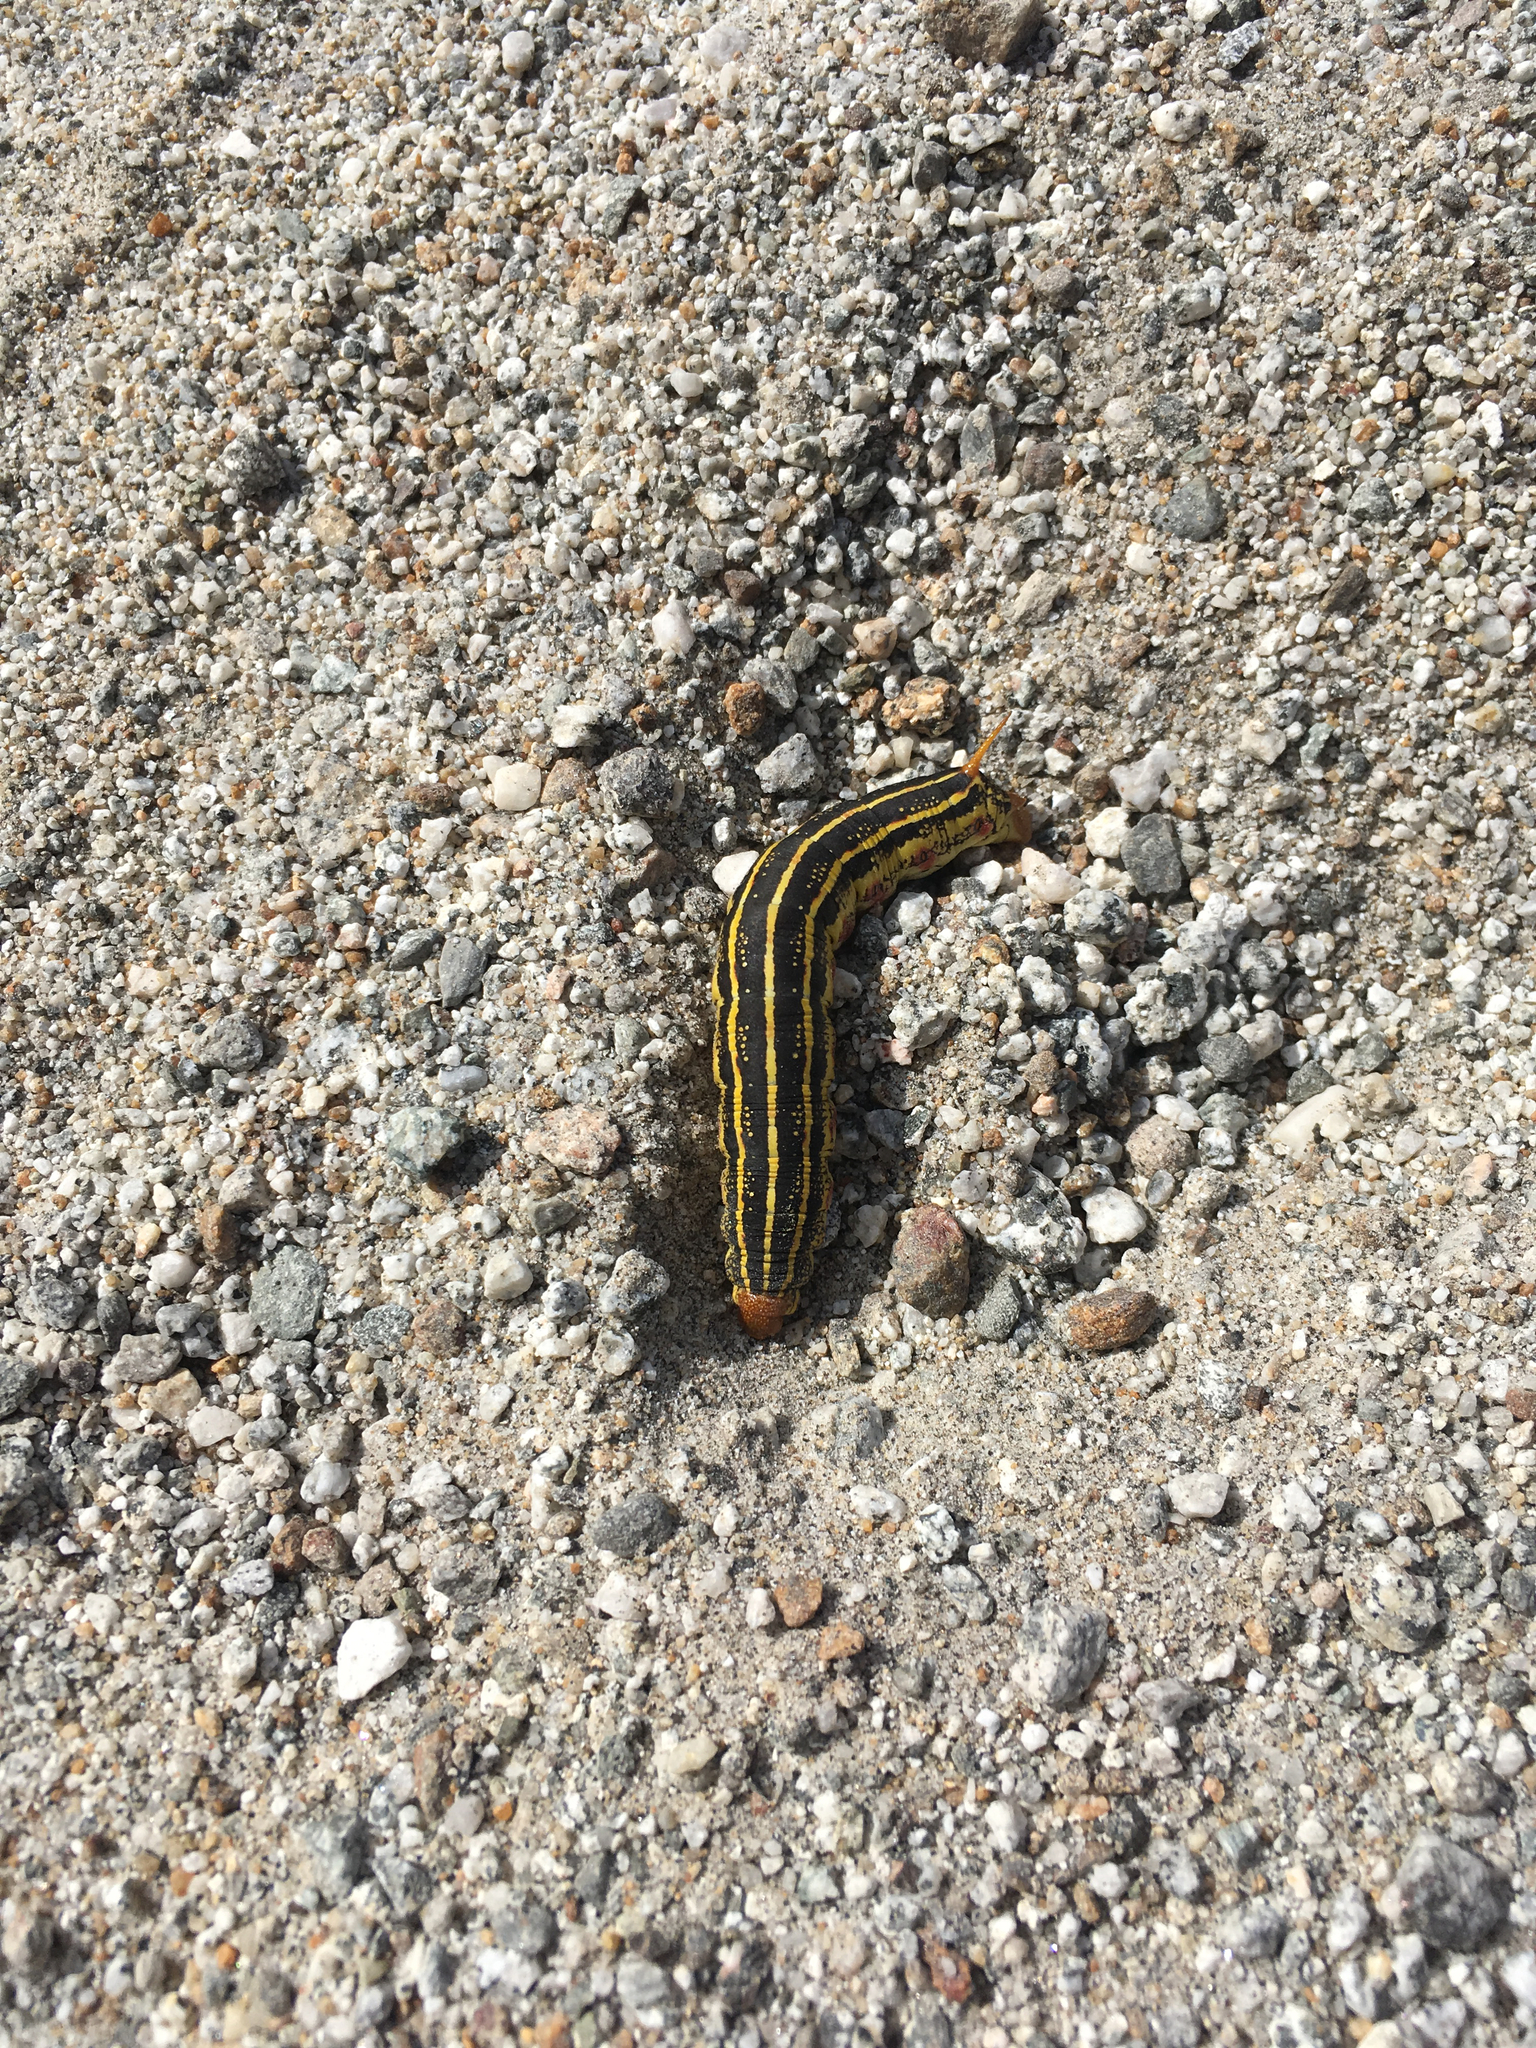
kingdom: Animalia
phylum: Arthropoda
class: Insecta
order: Lepidoptera
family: Sphingidae
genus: Hyles
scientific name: Hyles lineata
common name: White-lined sphinx
